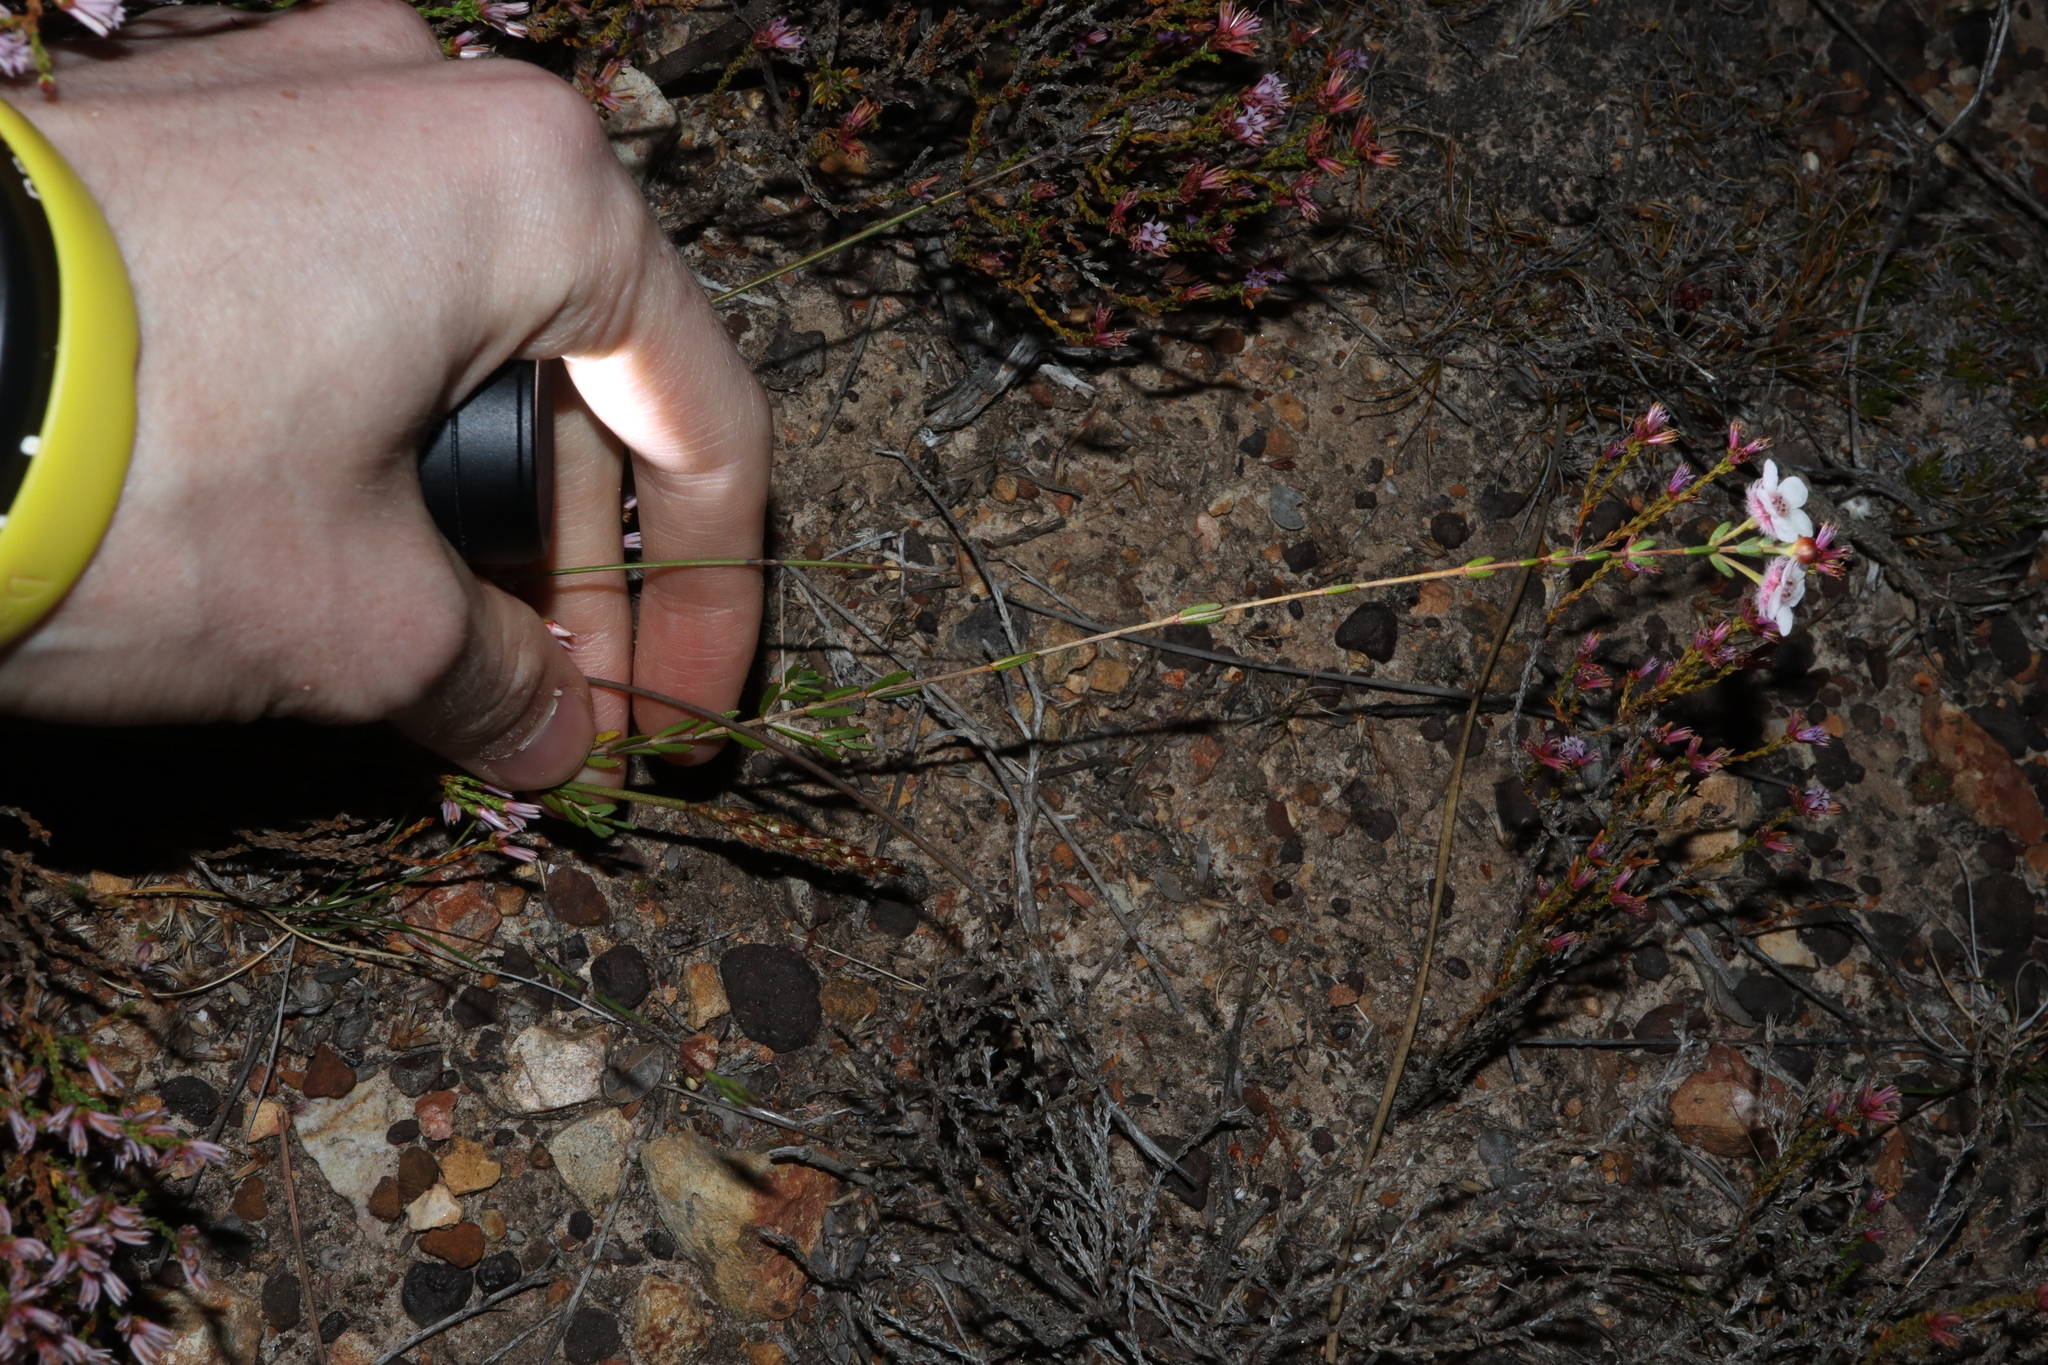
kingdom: Plantae
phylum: Tracheophyta
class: Magnoliopsida
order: Myrtales
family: Myrtaceae
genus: Verticordia
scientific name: Verticordia habrantha
